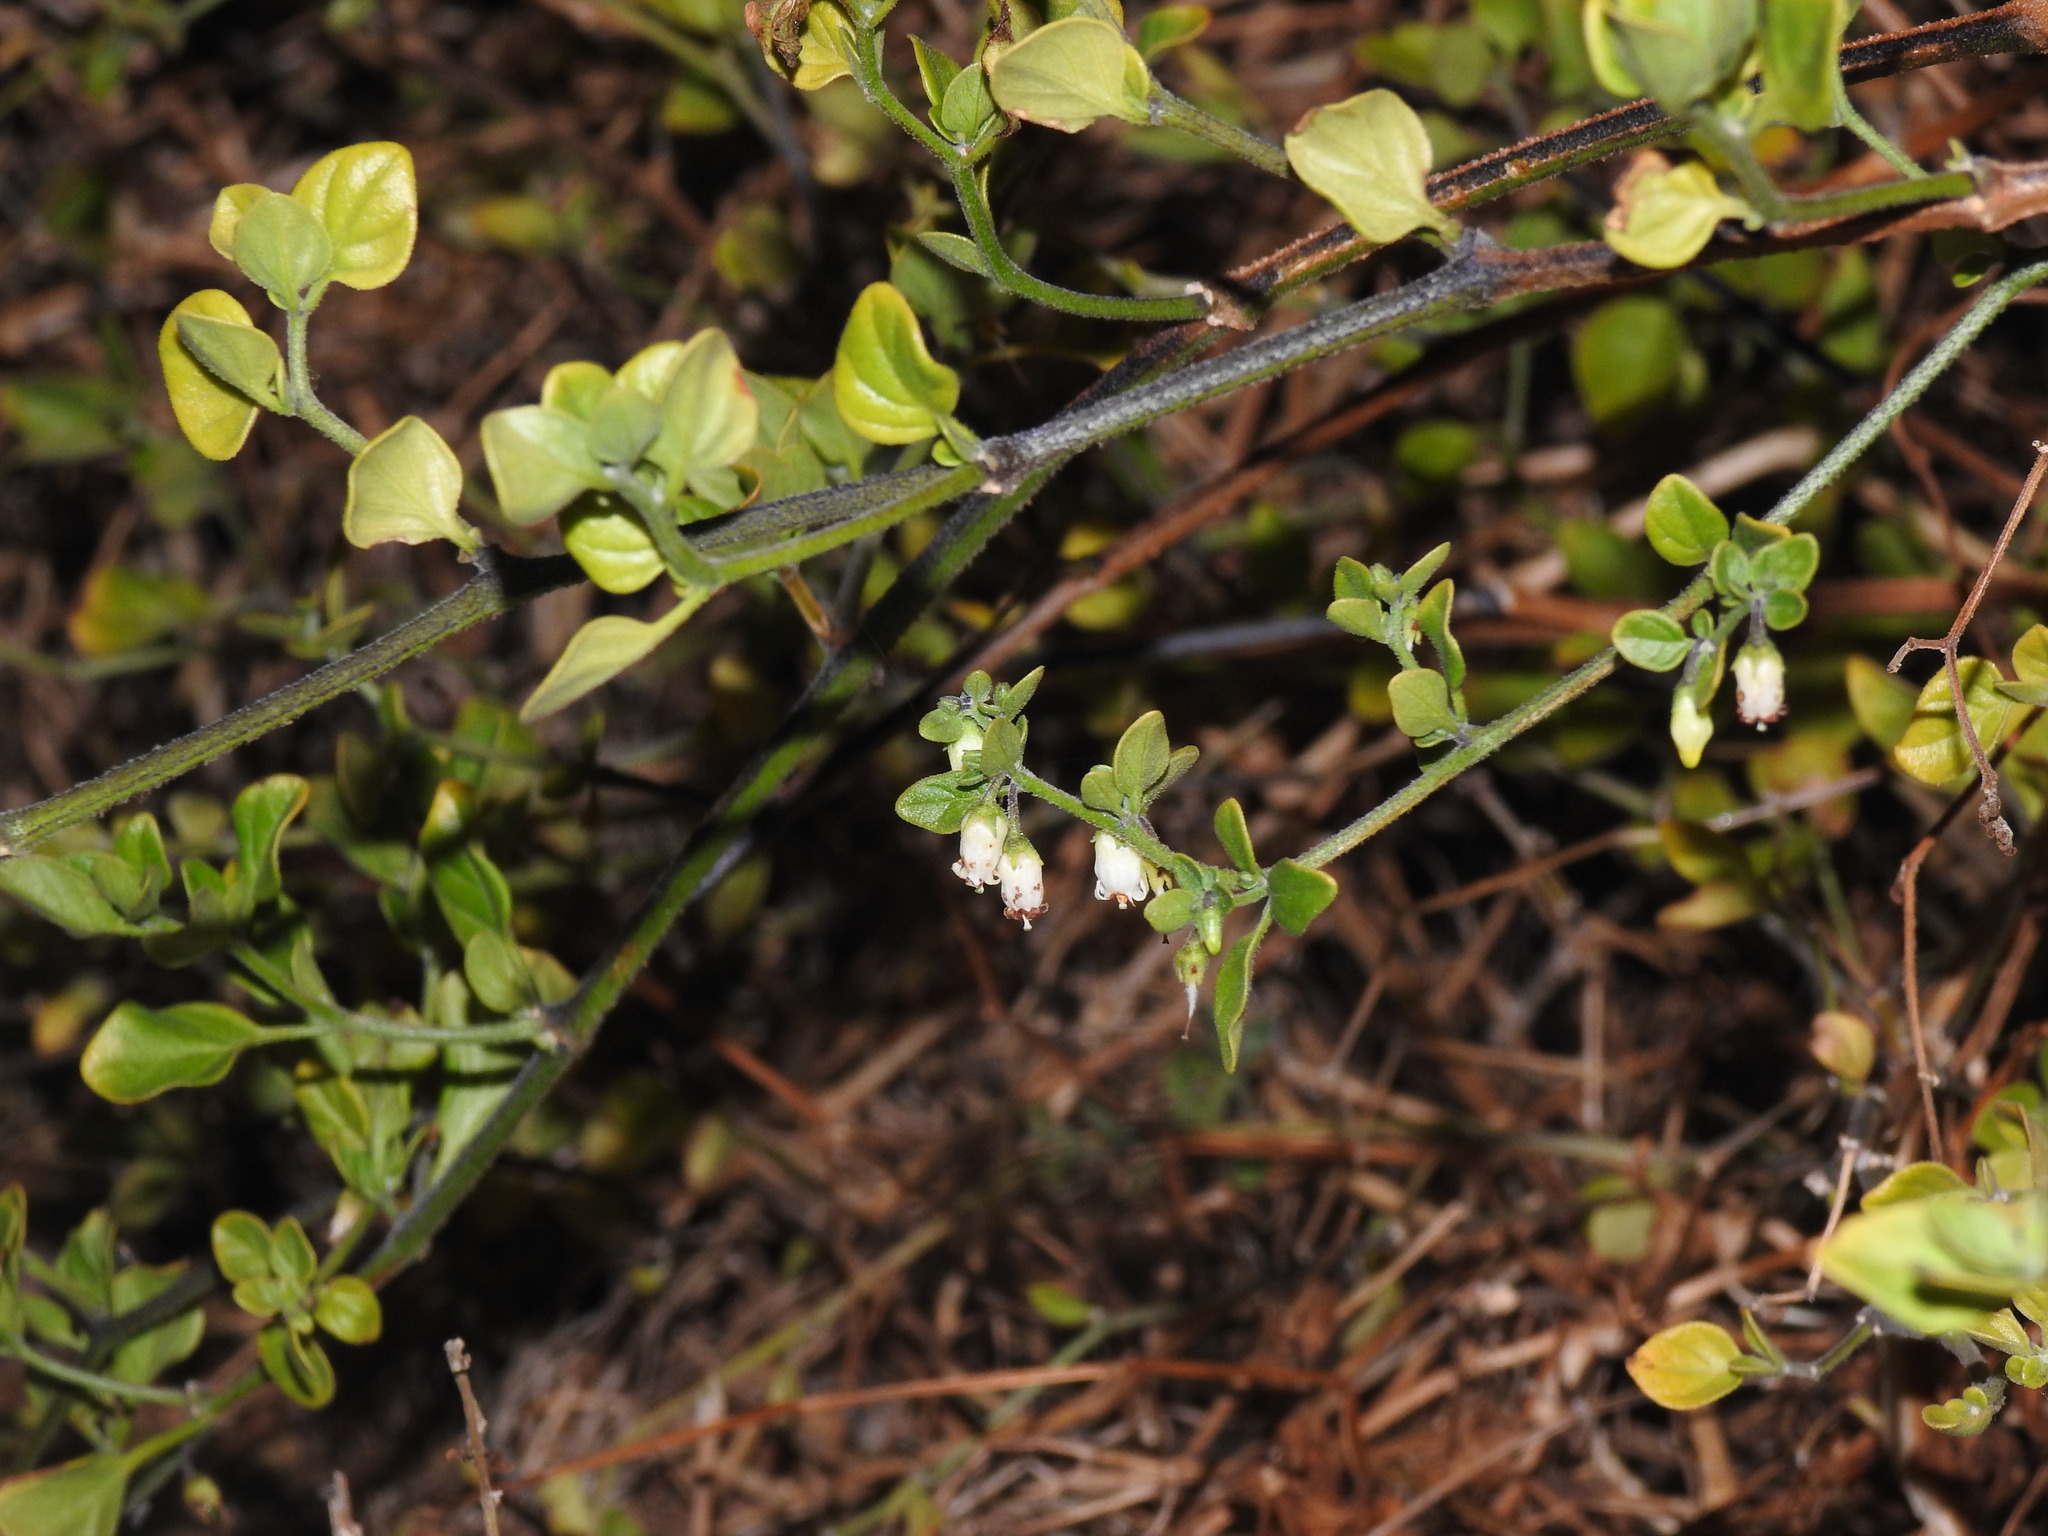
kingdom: Plantae
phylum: Tracheophyta
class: Magnoliopsida
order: Solanales
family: Solanaceae
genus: Salpichroa
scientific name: Salpichroa origanifolia
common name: Lily-of-the-valley-vine
